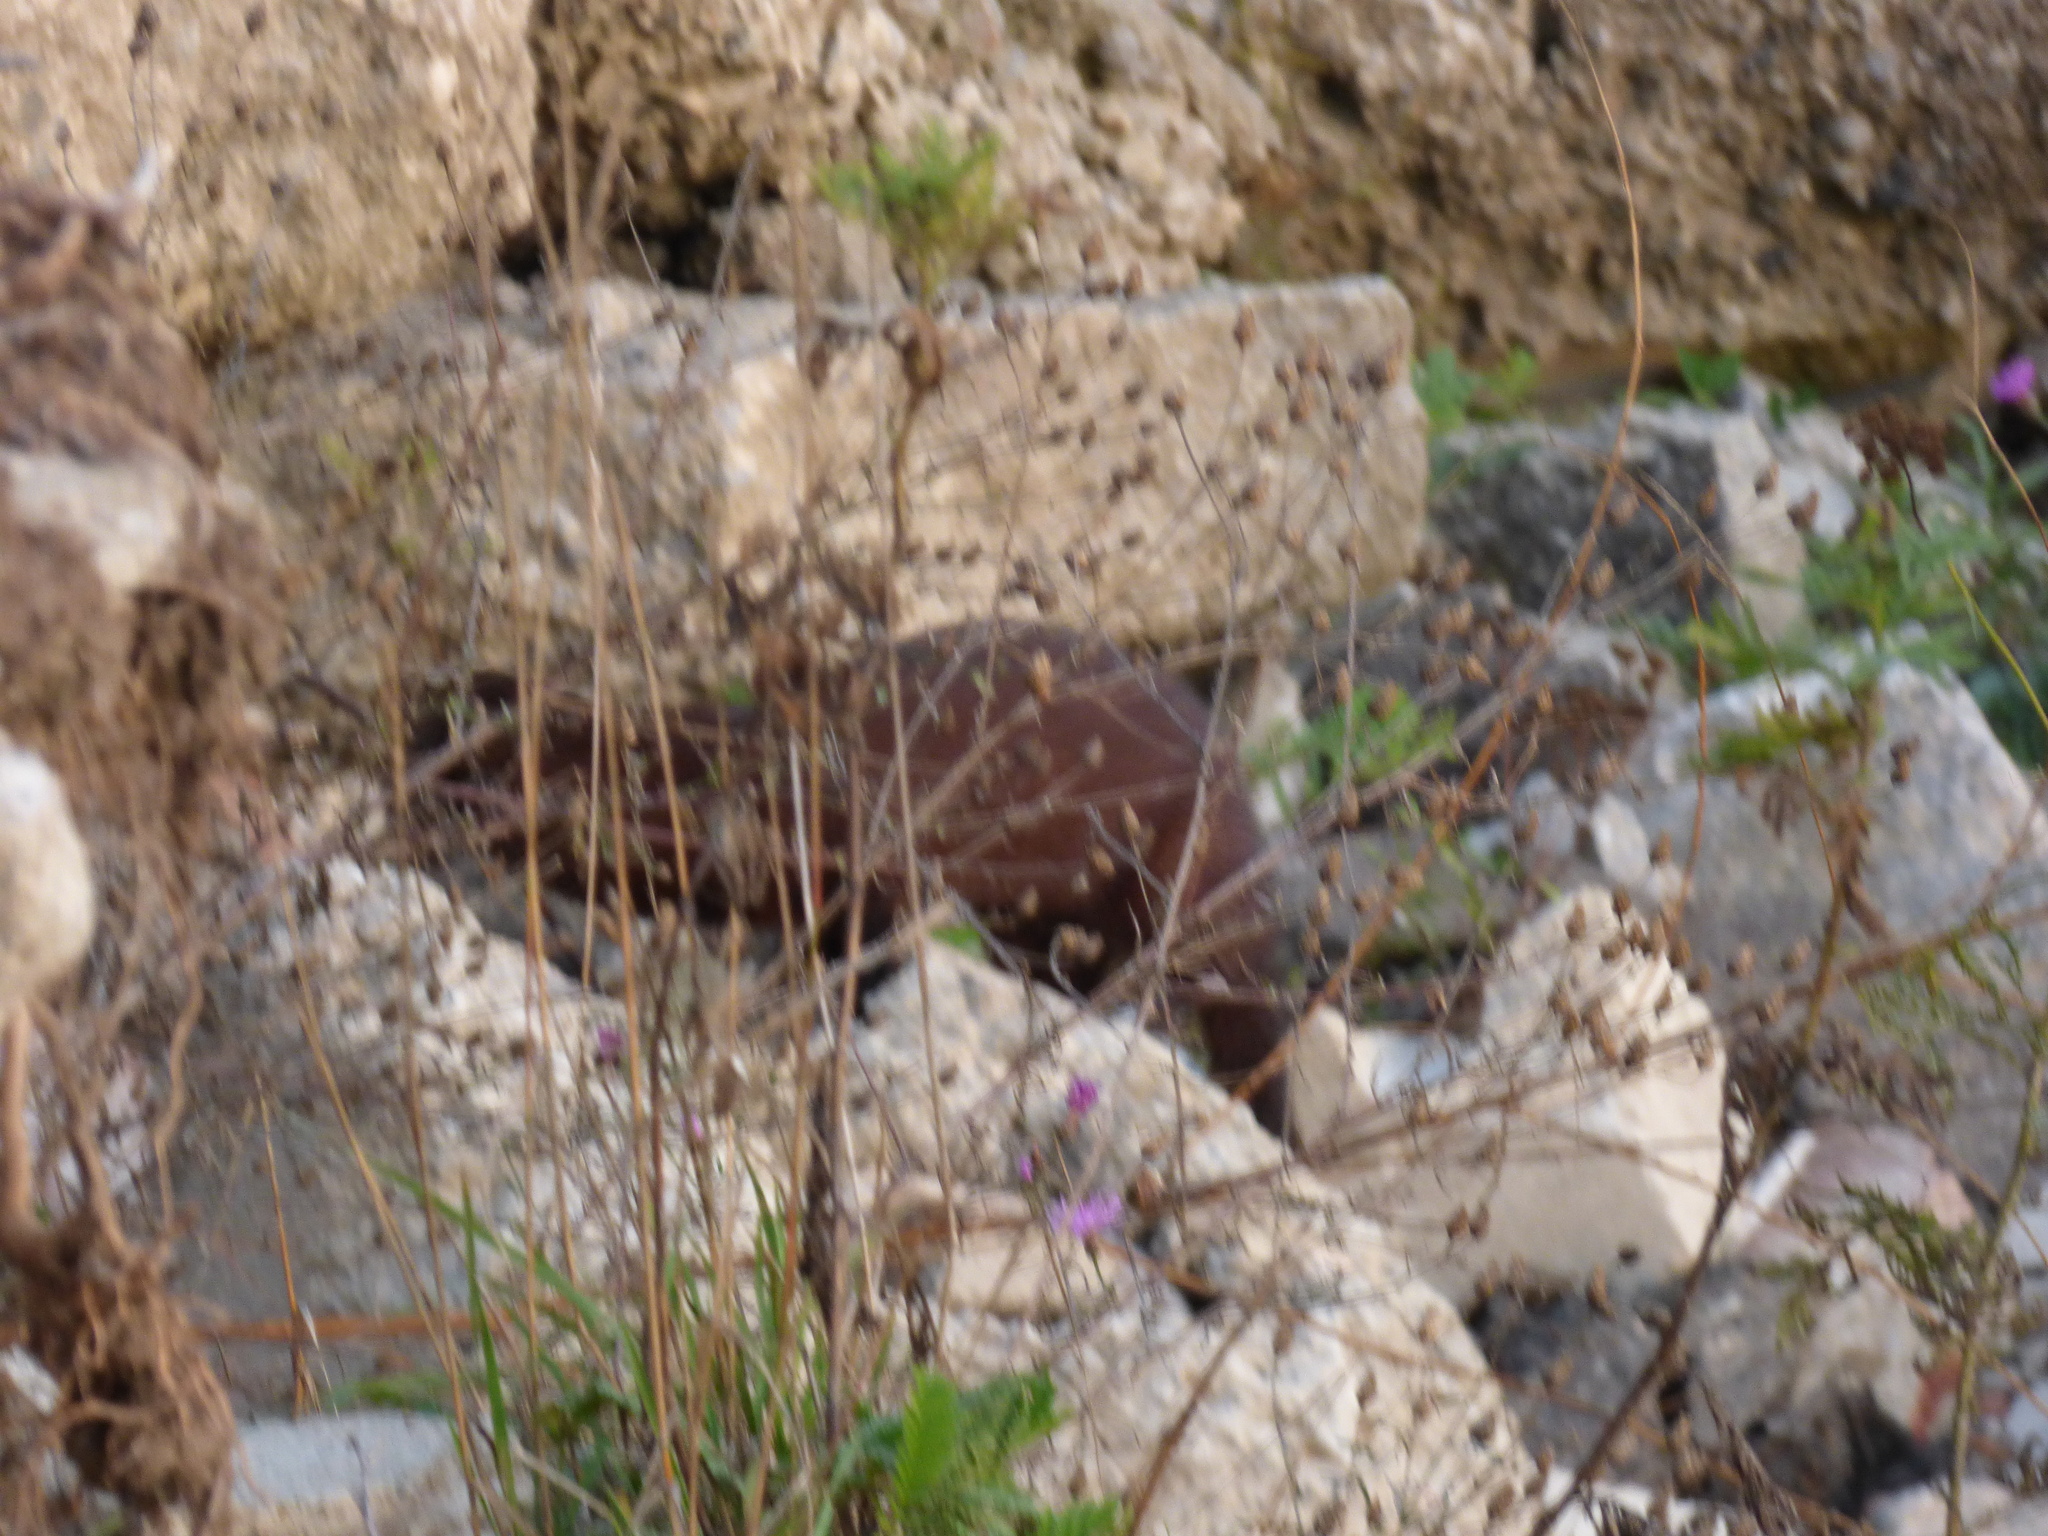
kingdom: Animalia
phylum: Chordata
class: Mammalia
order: Carnivora
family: Mustelidae
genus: Mustela
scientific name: Mustela
